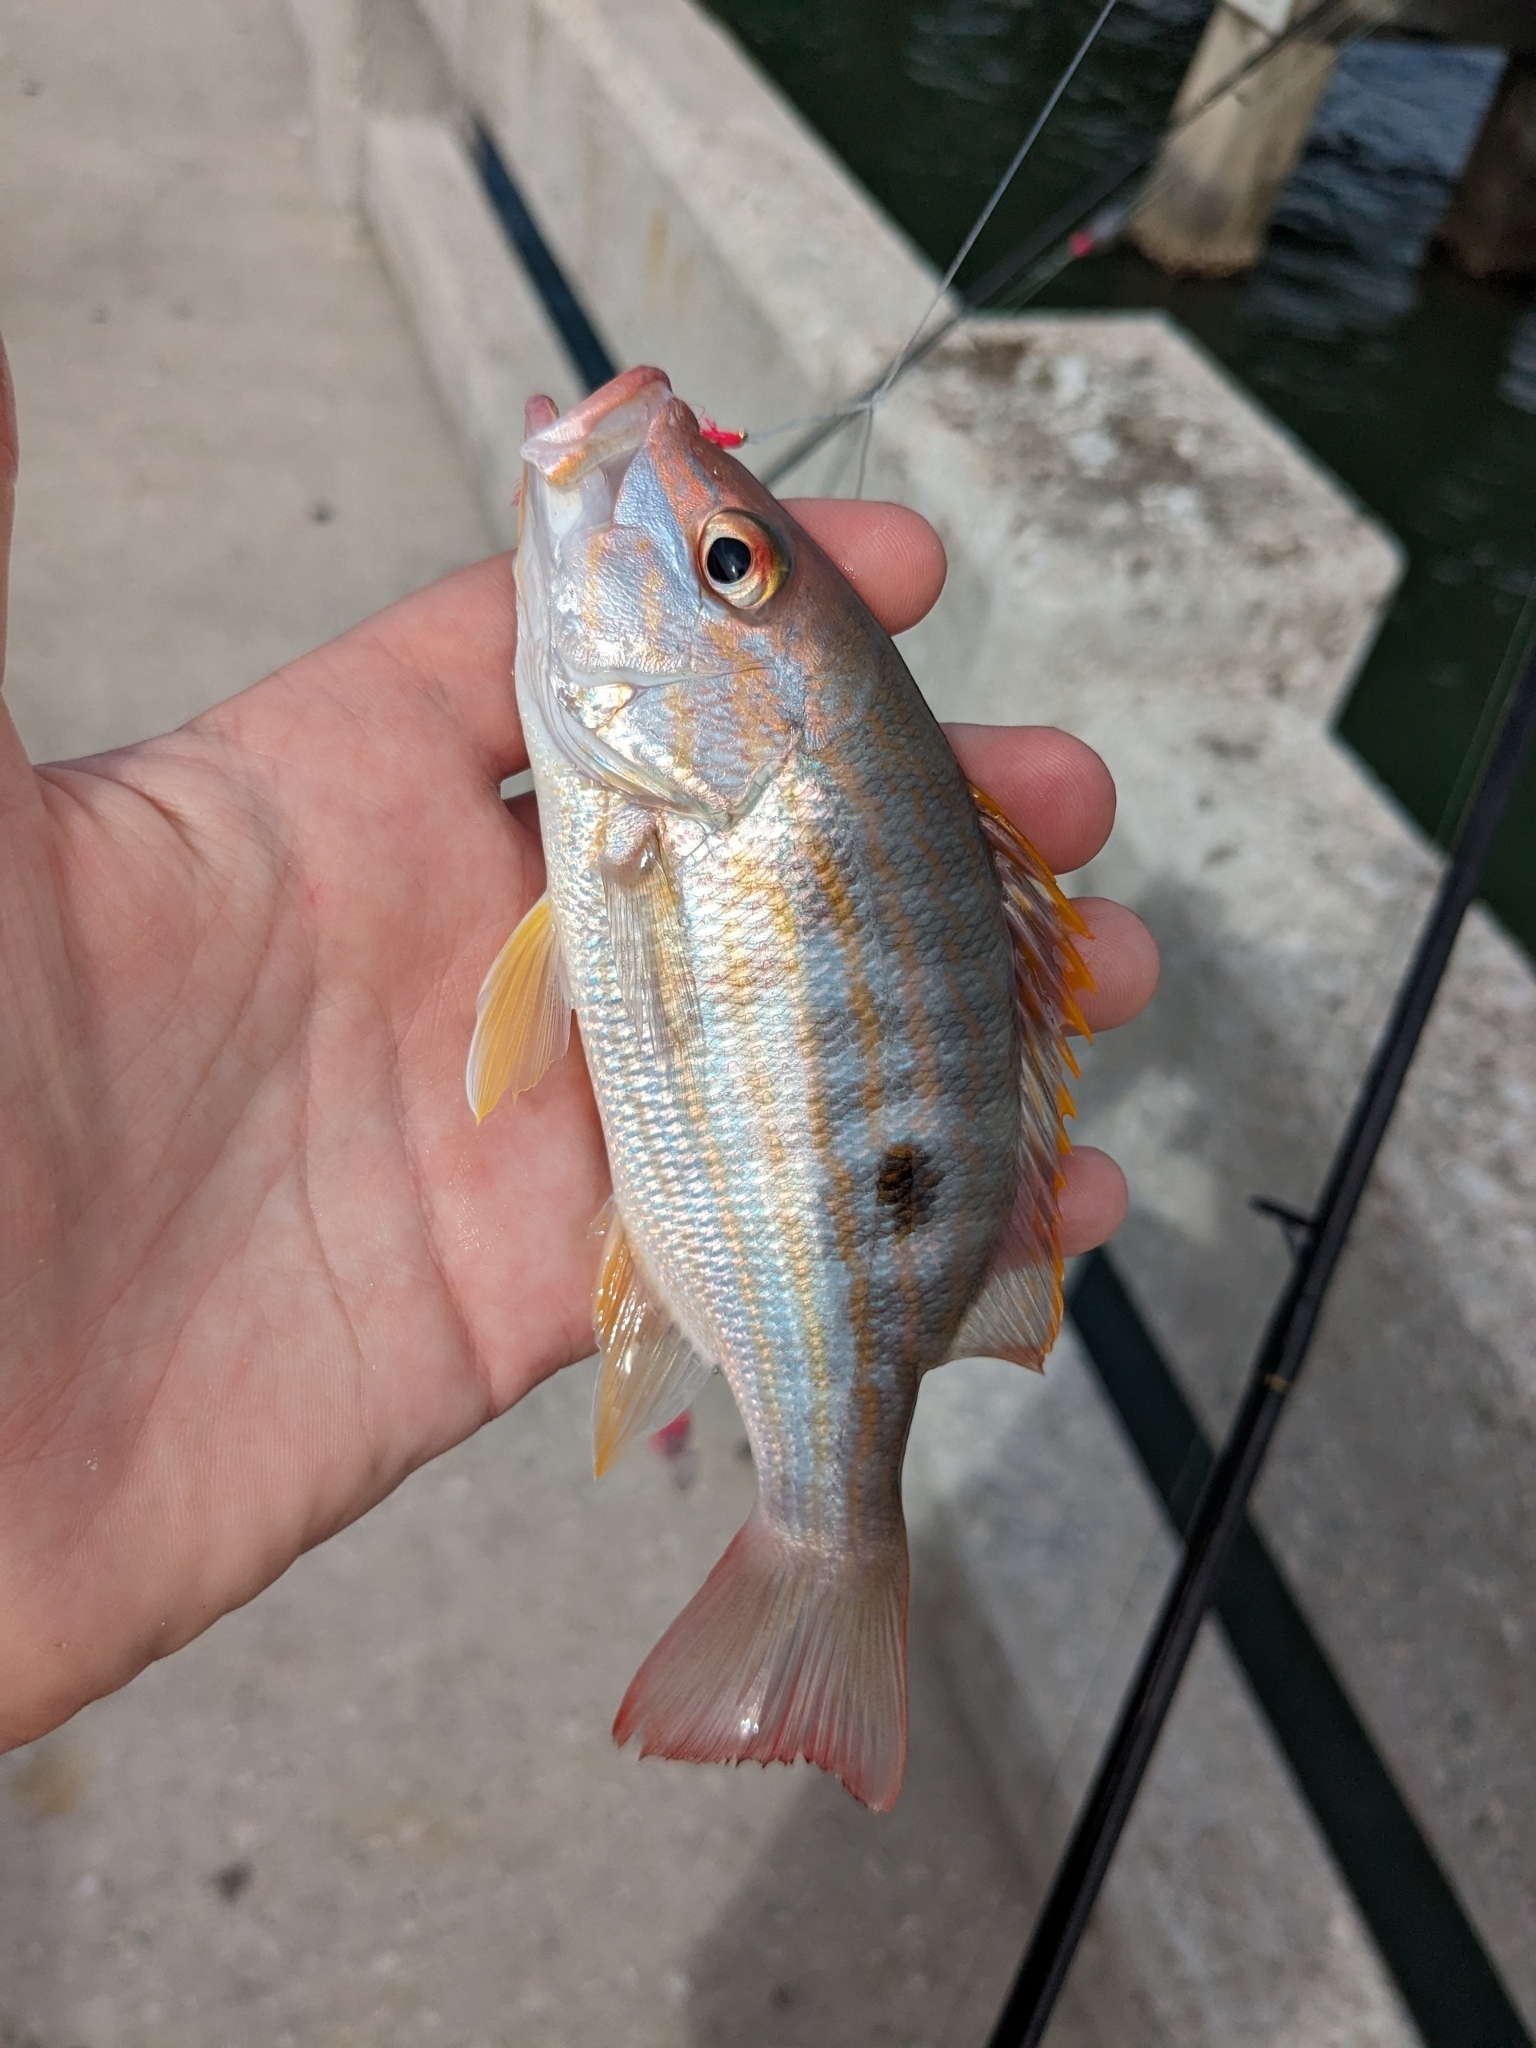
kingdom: Animalia
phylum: Chordata
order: Perciformes
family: Lutjanidae
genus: Lutjanus
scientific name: Lutjanus synagris
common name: Lane snapper
